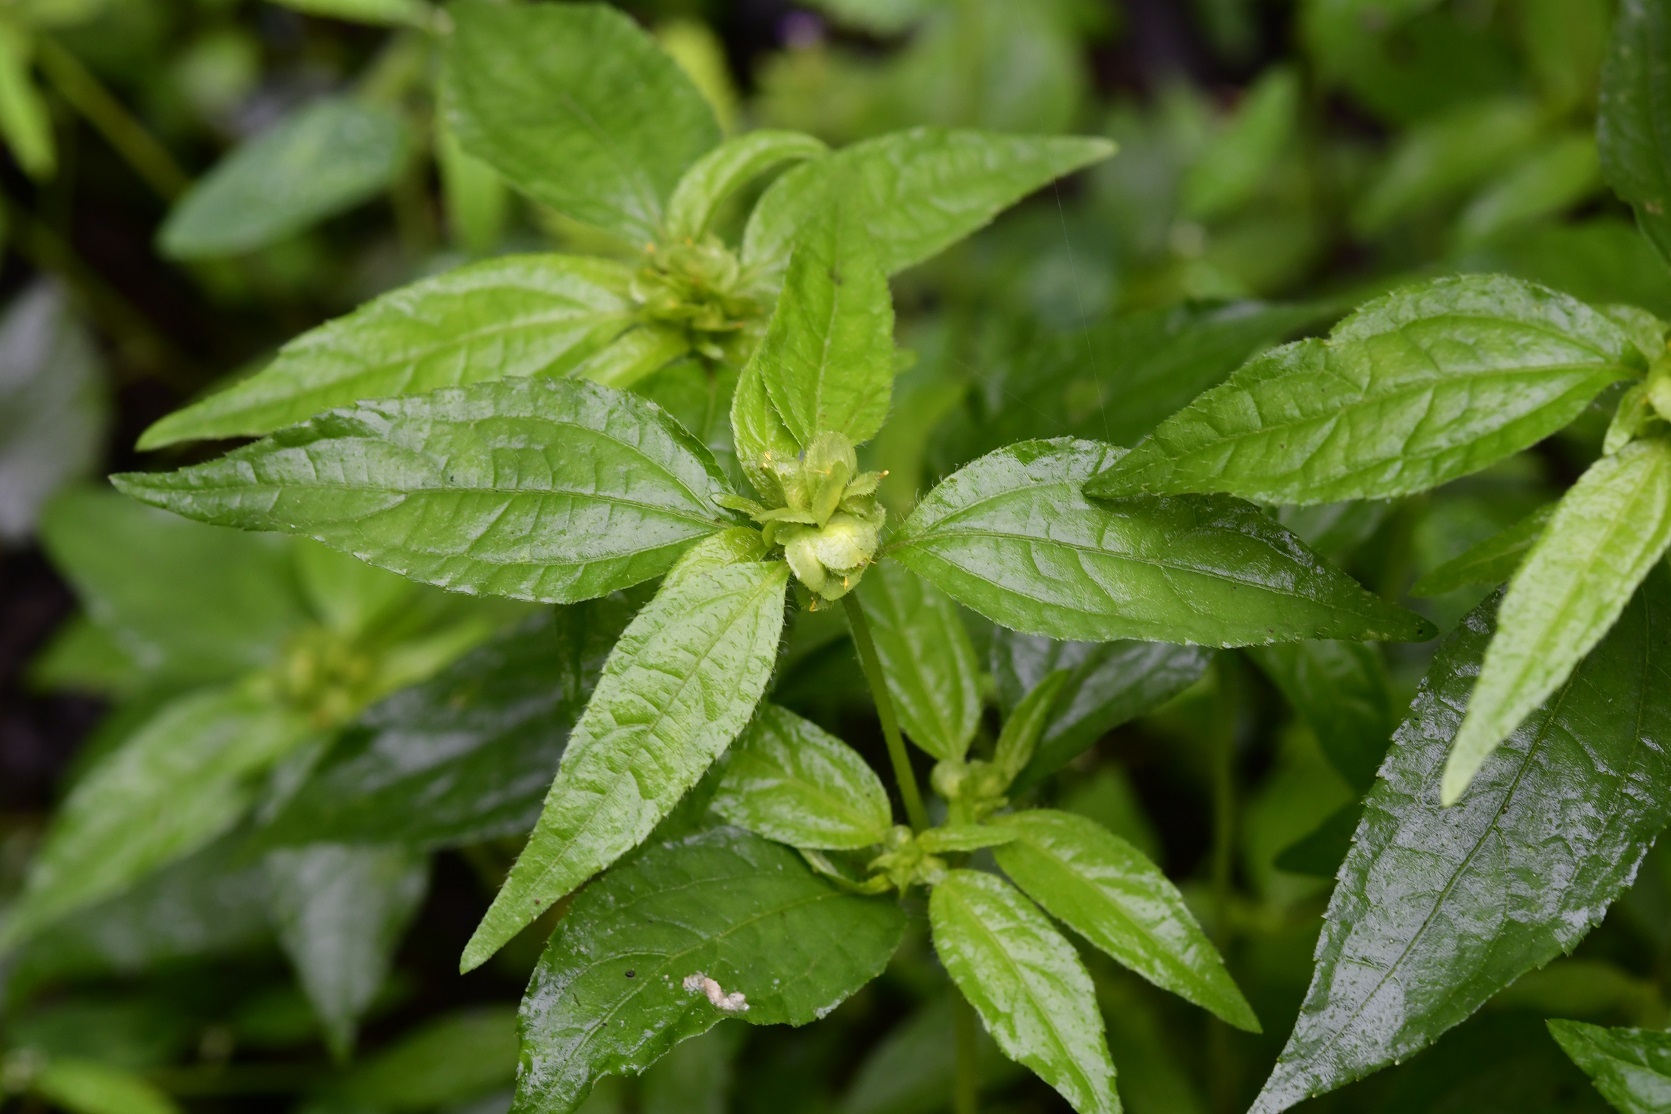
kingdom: Plantae
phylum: Tracheophyta
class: Magnoliopsida
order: Asterales
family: Asteraceae
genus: Delilia
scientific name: Delilia biflora
